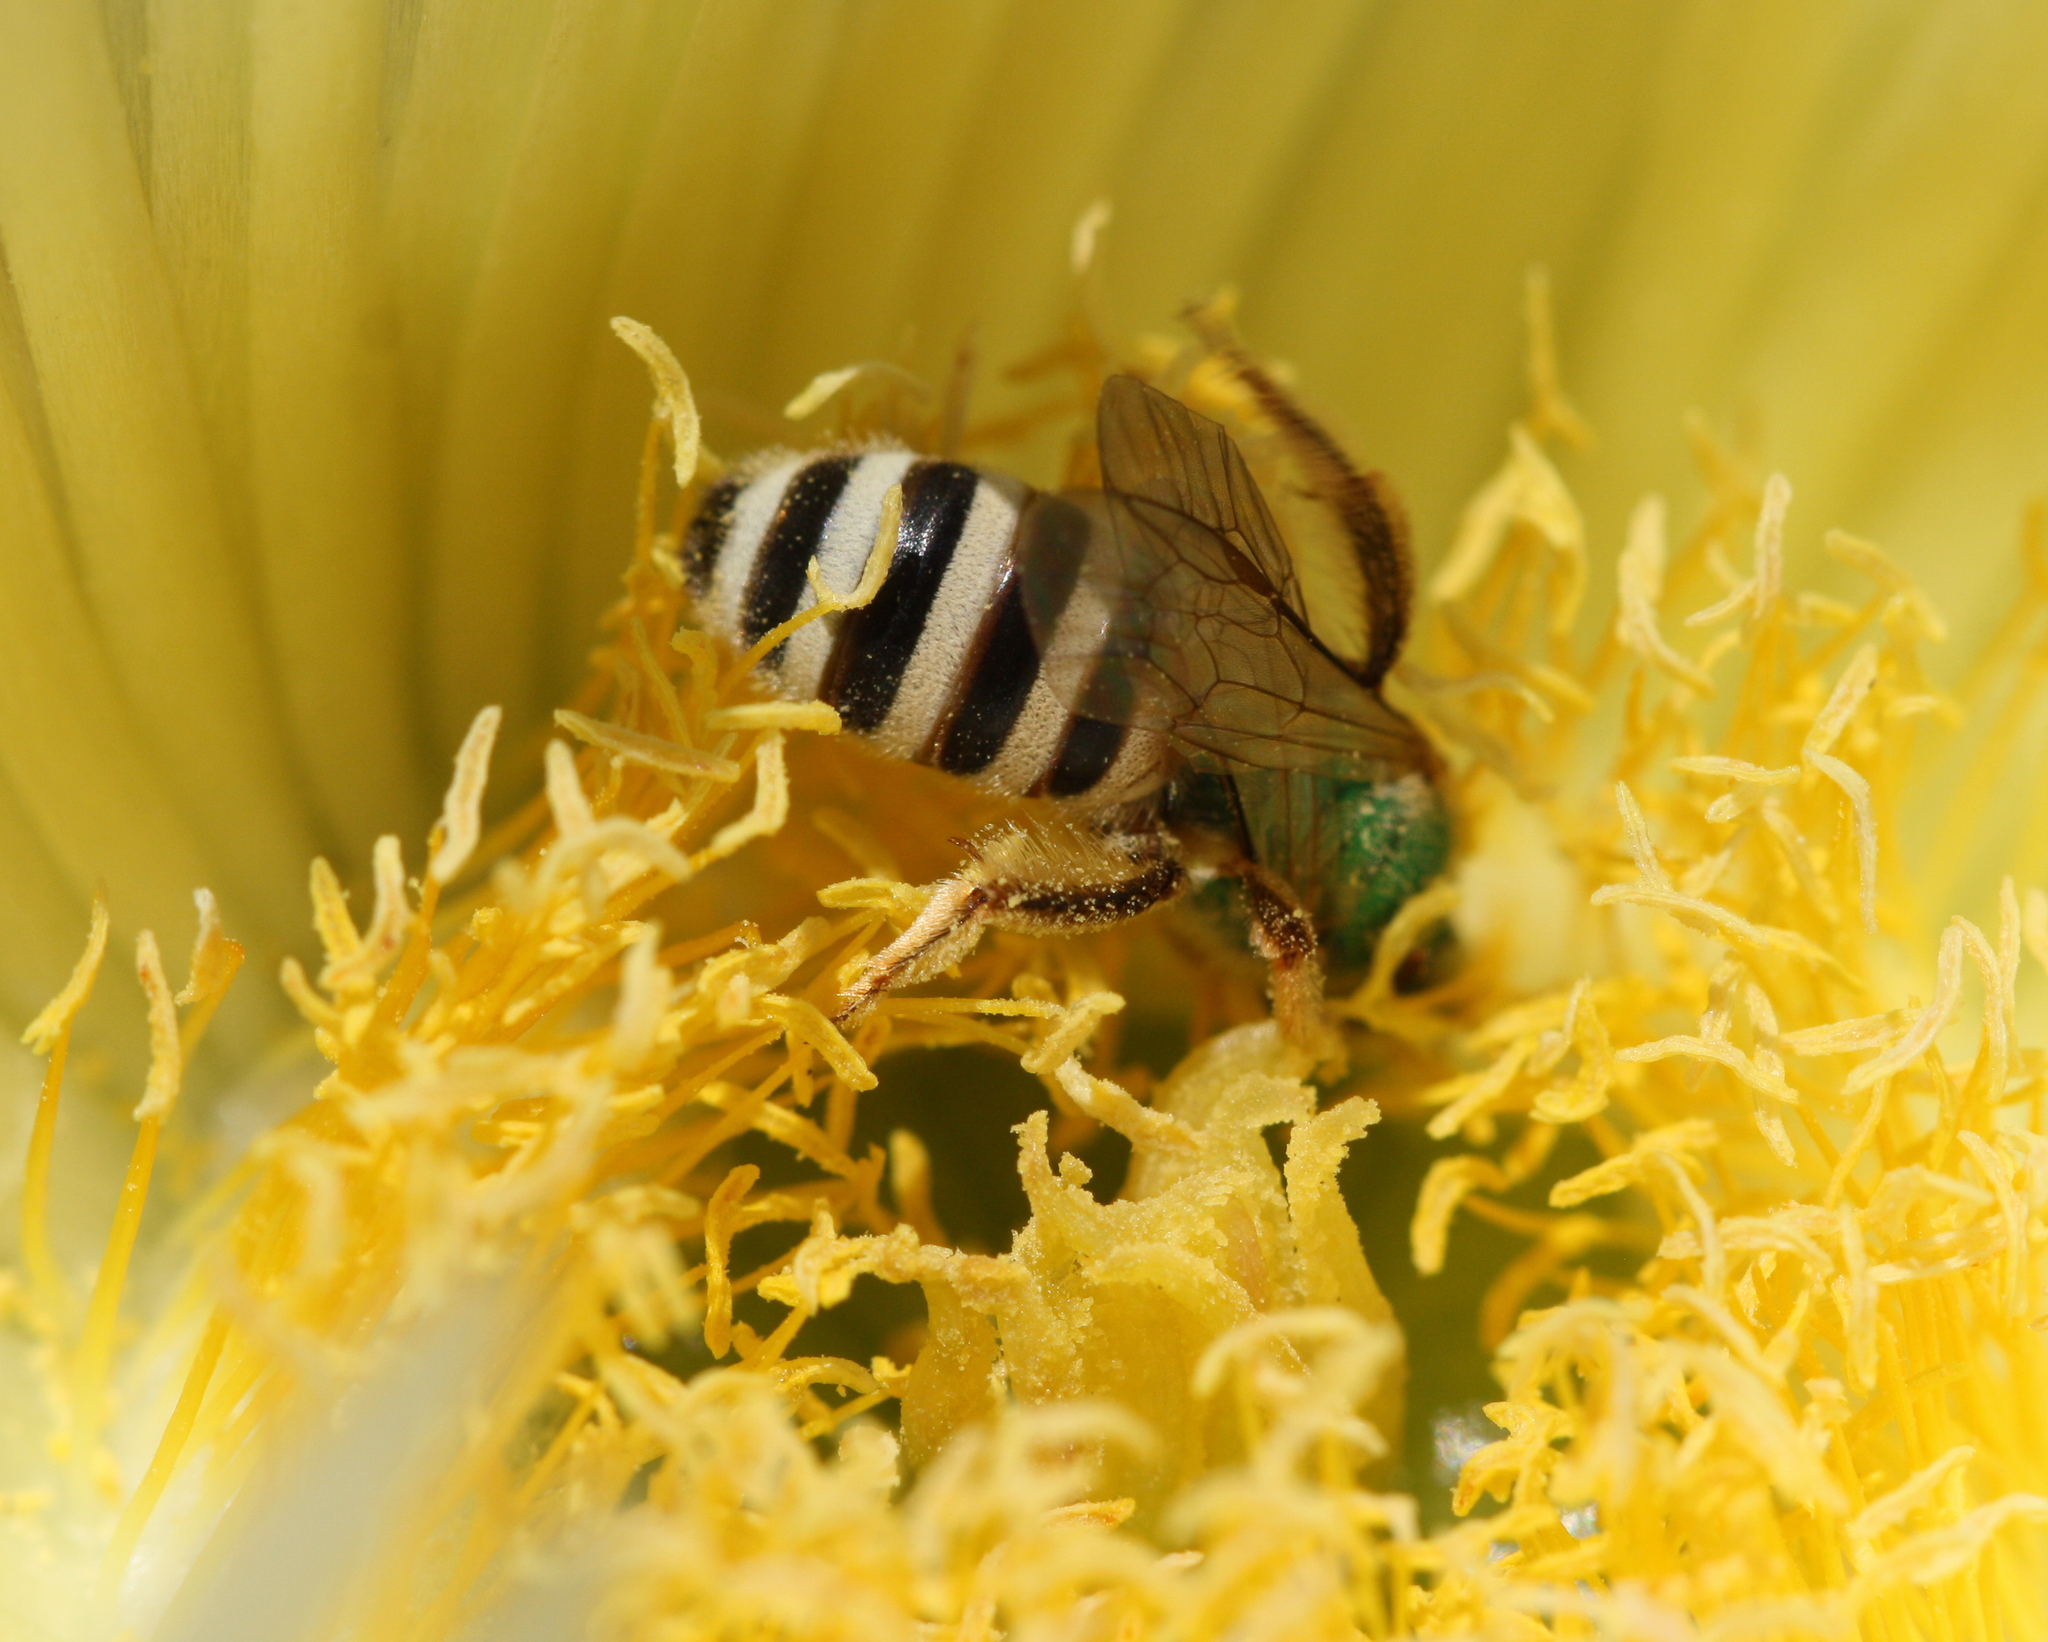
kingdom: Animalia
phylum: Arthropoda
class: Insecta
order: Hymenoptera
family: Halictidae
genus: Agapostemon
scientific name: Agapostemon melliventris
